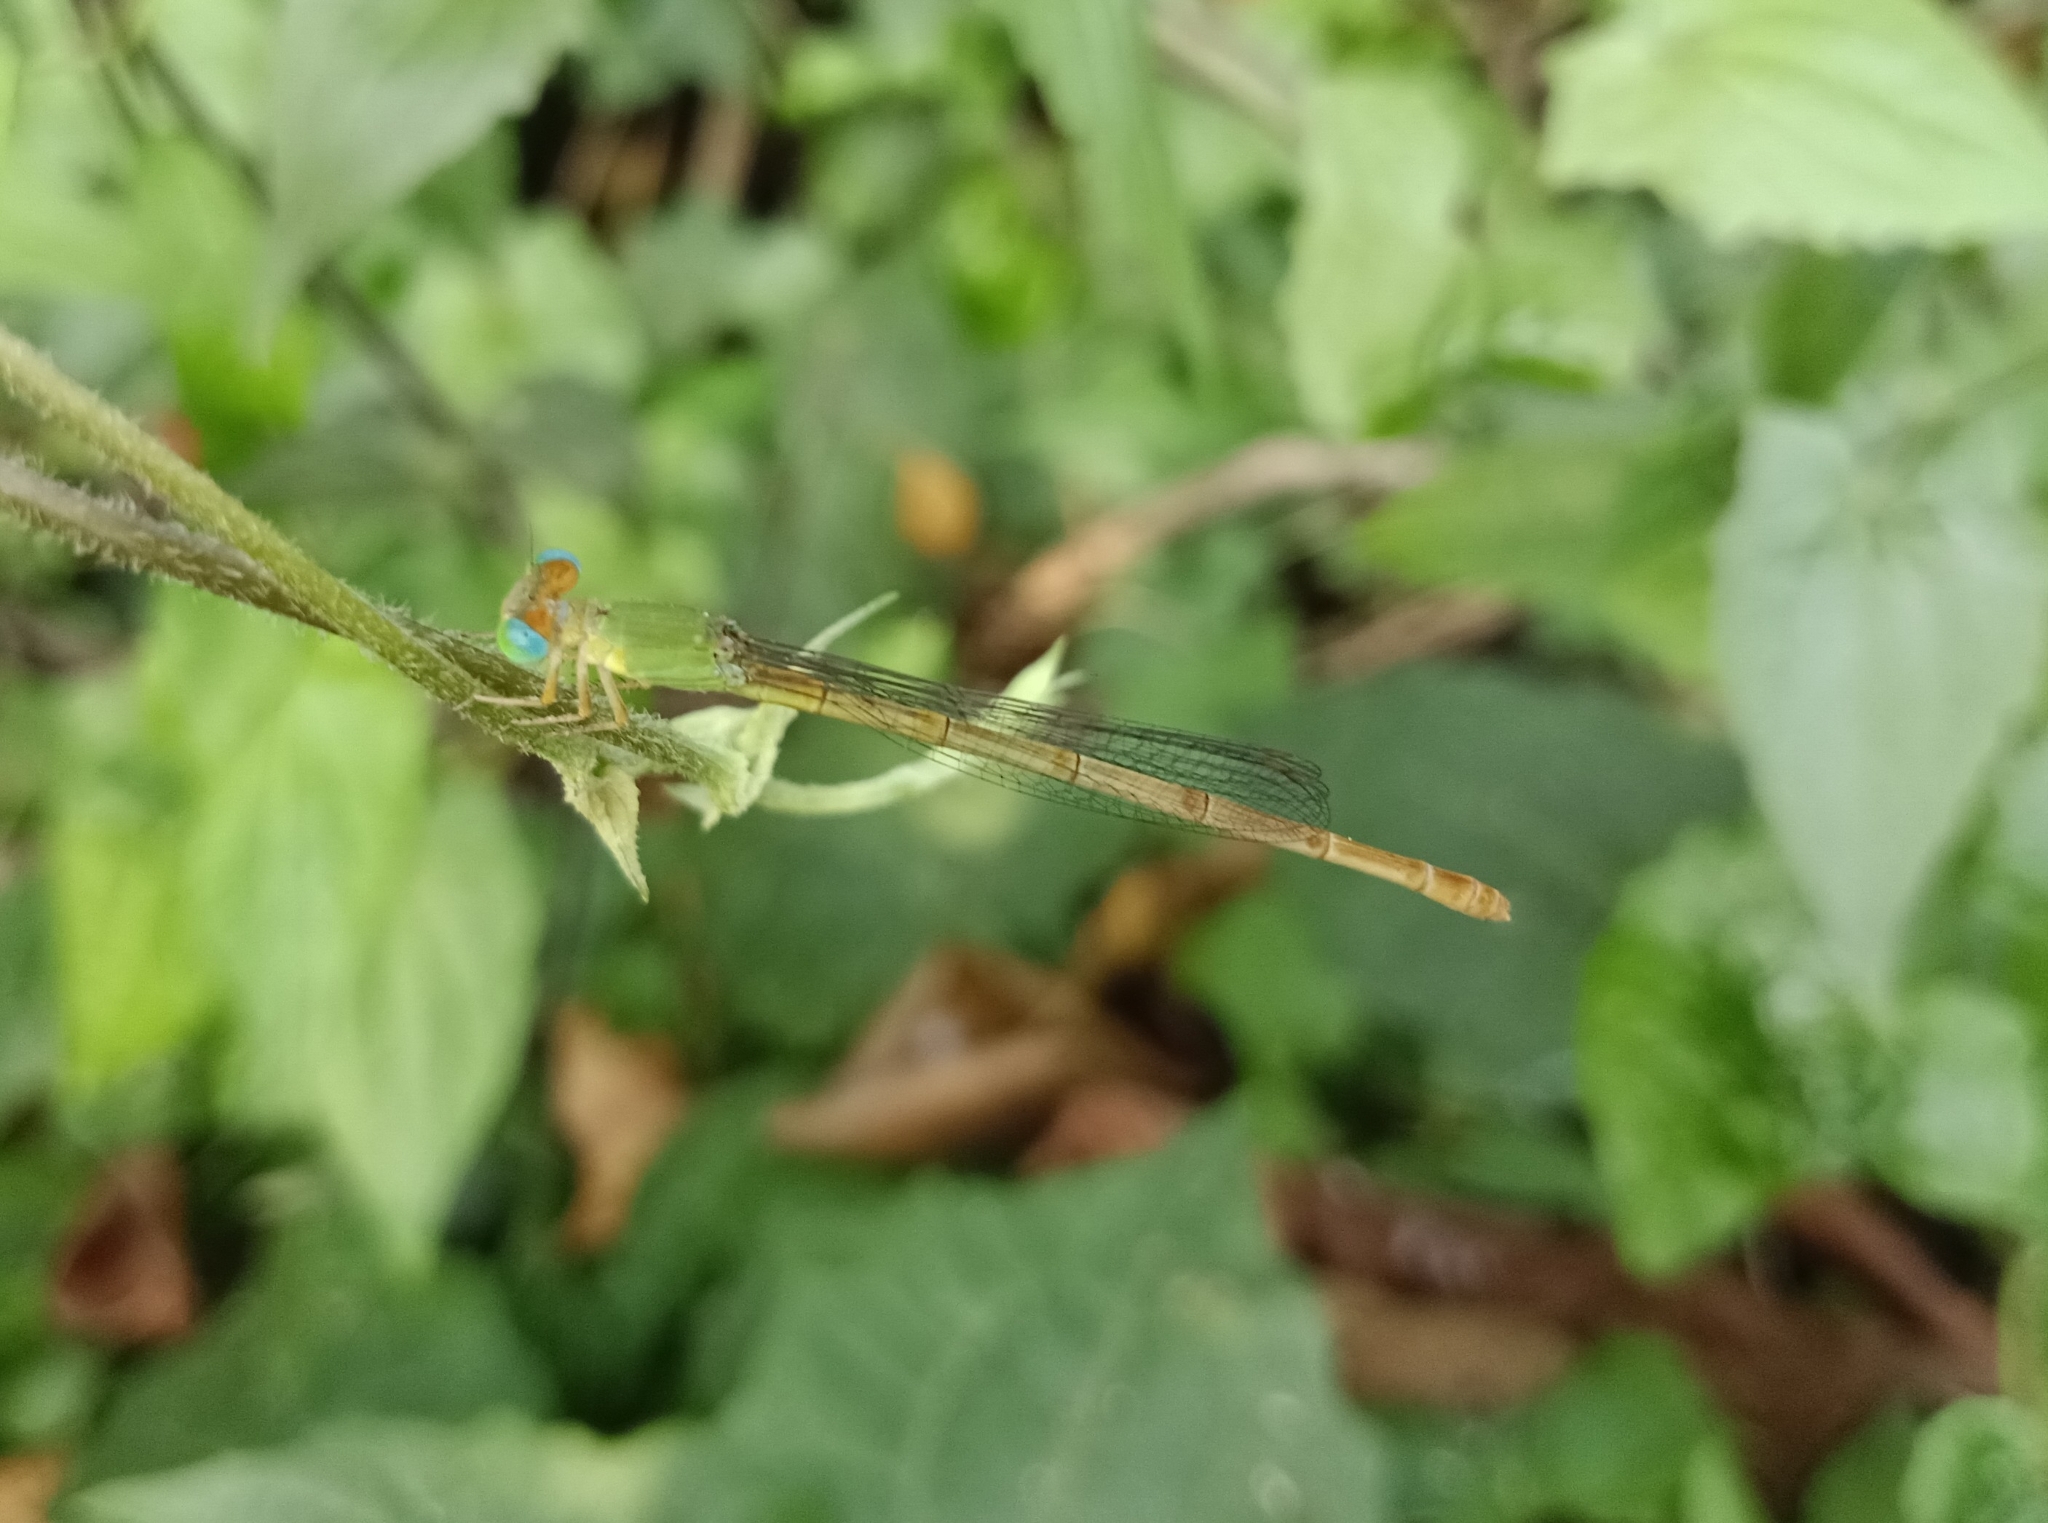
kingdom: Animalia
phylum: Arthropoda
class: Insecta
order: Odonata
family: Coenagrionidae
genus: Ceriagrion
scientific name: Ceriagrion coromandelianum
